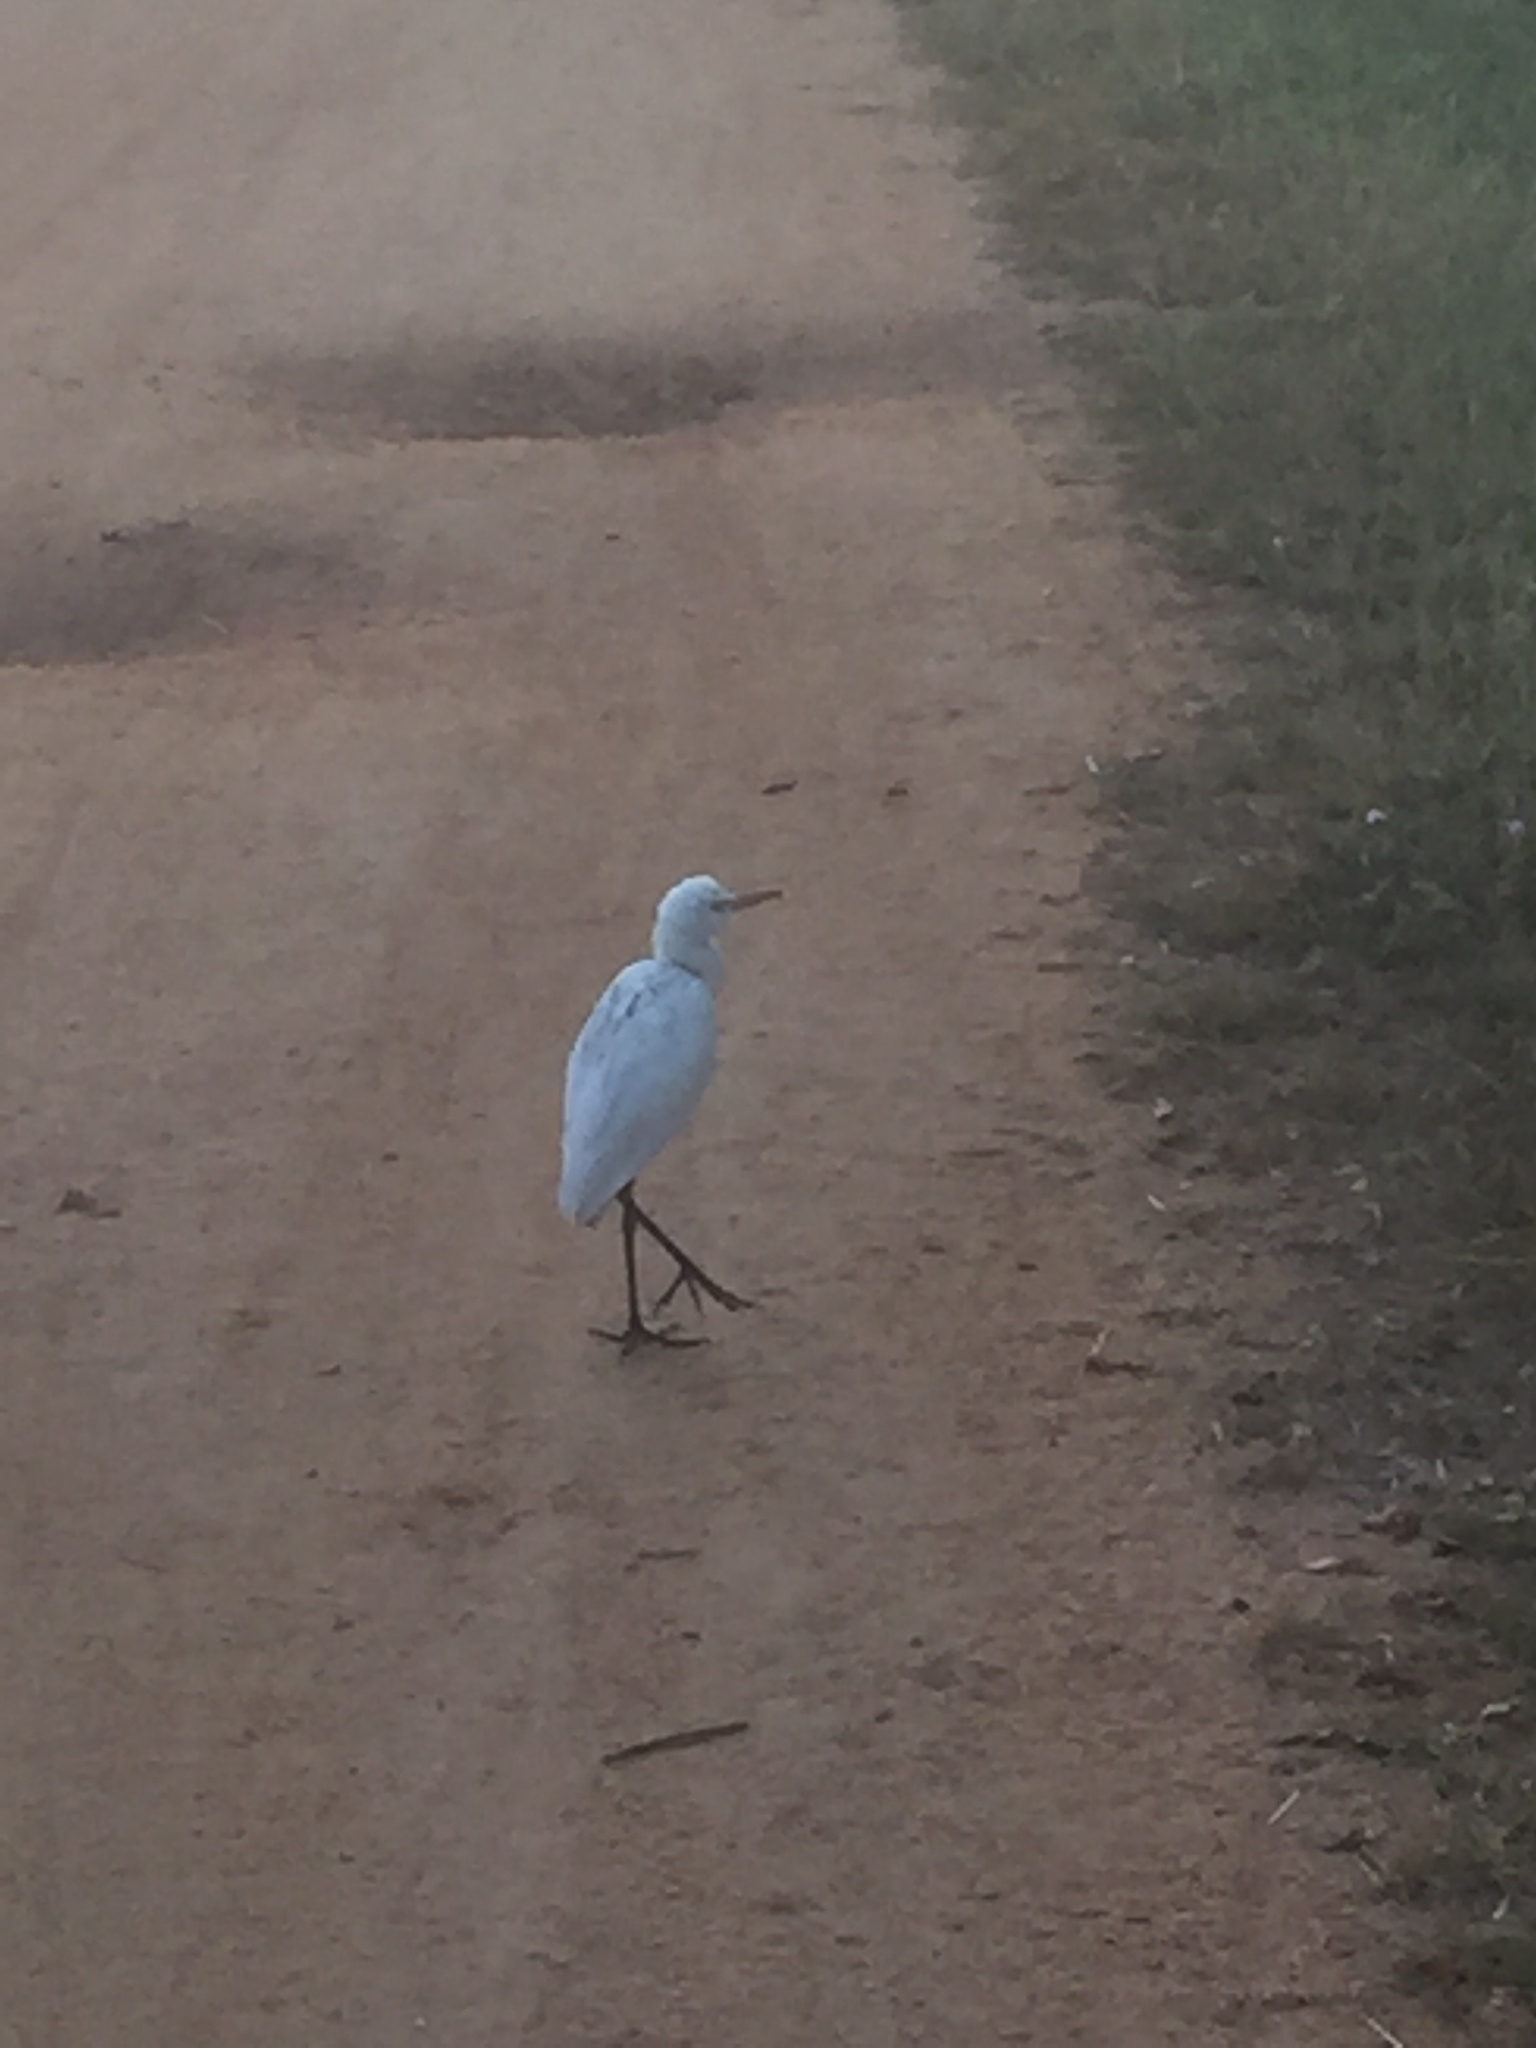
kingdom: Animalia
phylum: Chordata
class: Aves
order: Pelecaniformes
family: Ardeidae
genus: Bubulcus
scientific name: Bubulcus coromandus
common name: Eastern cattle egret
